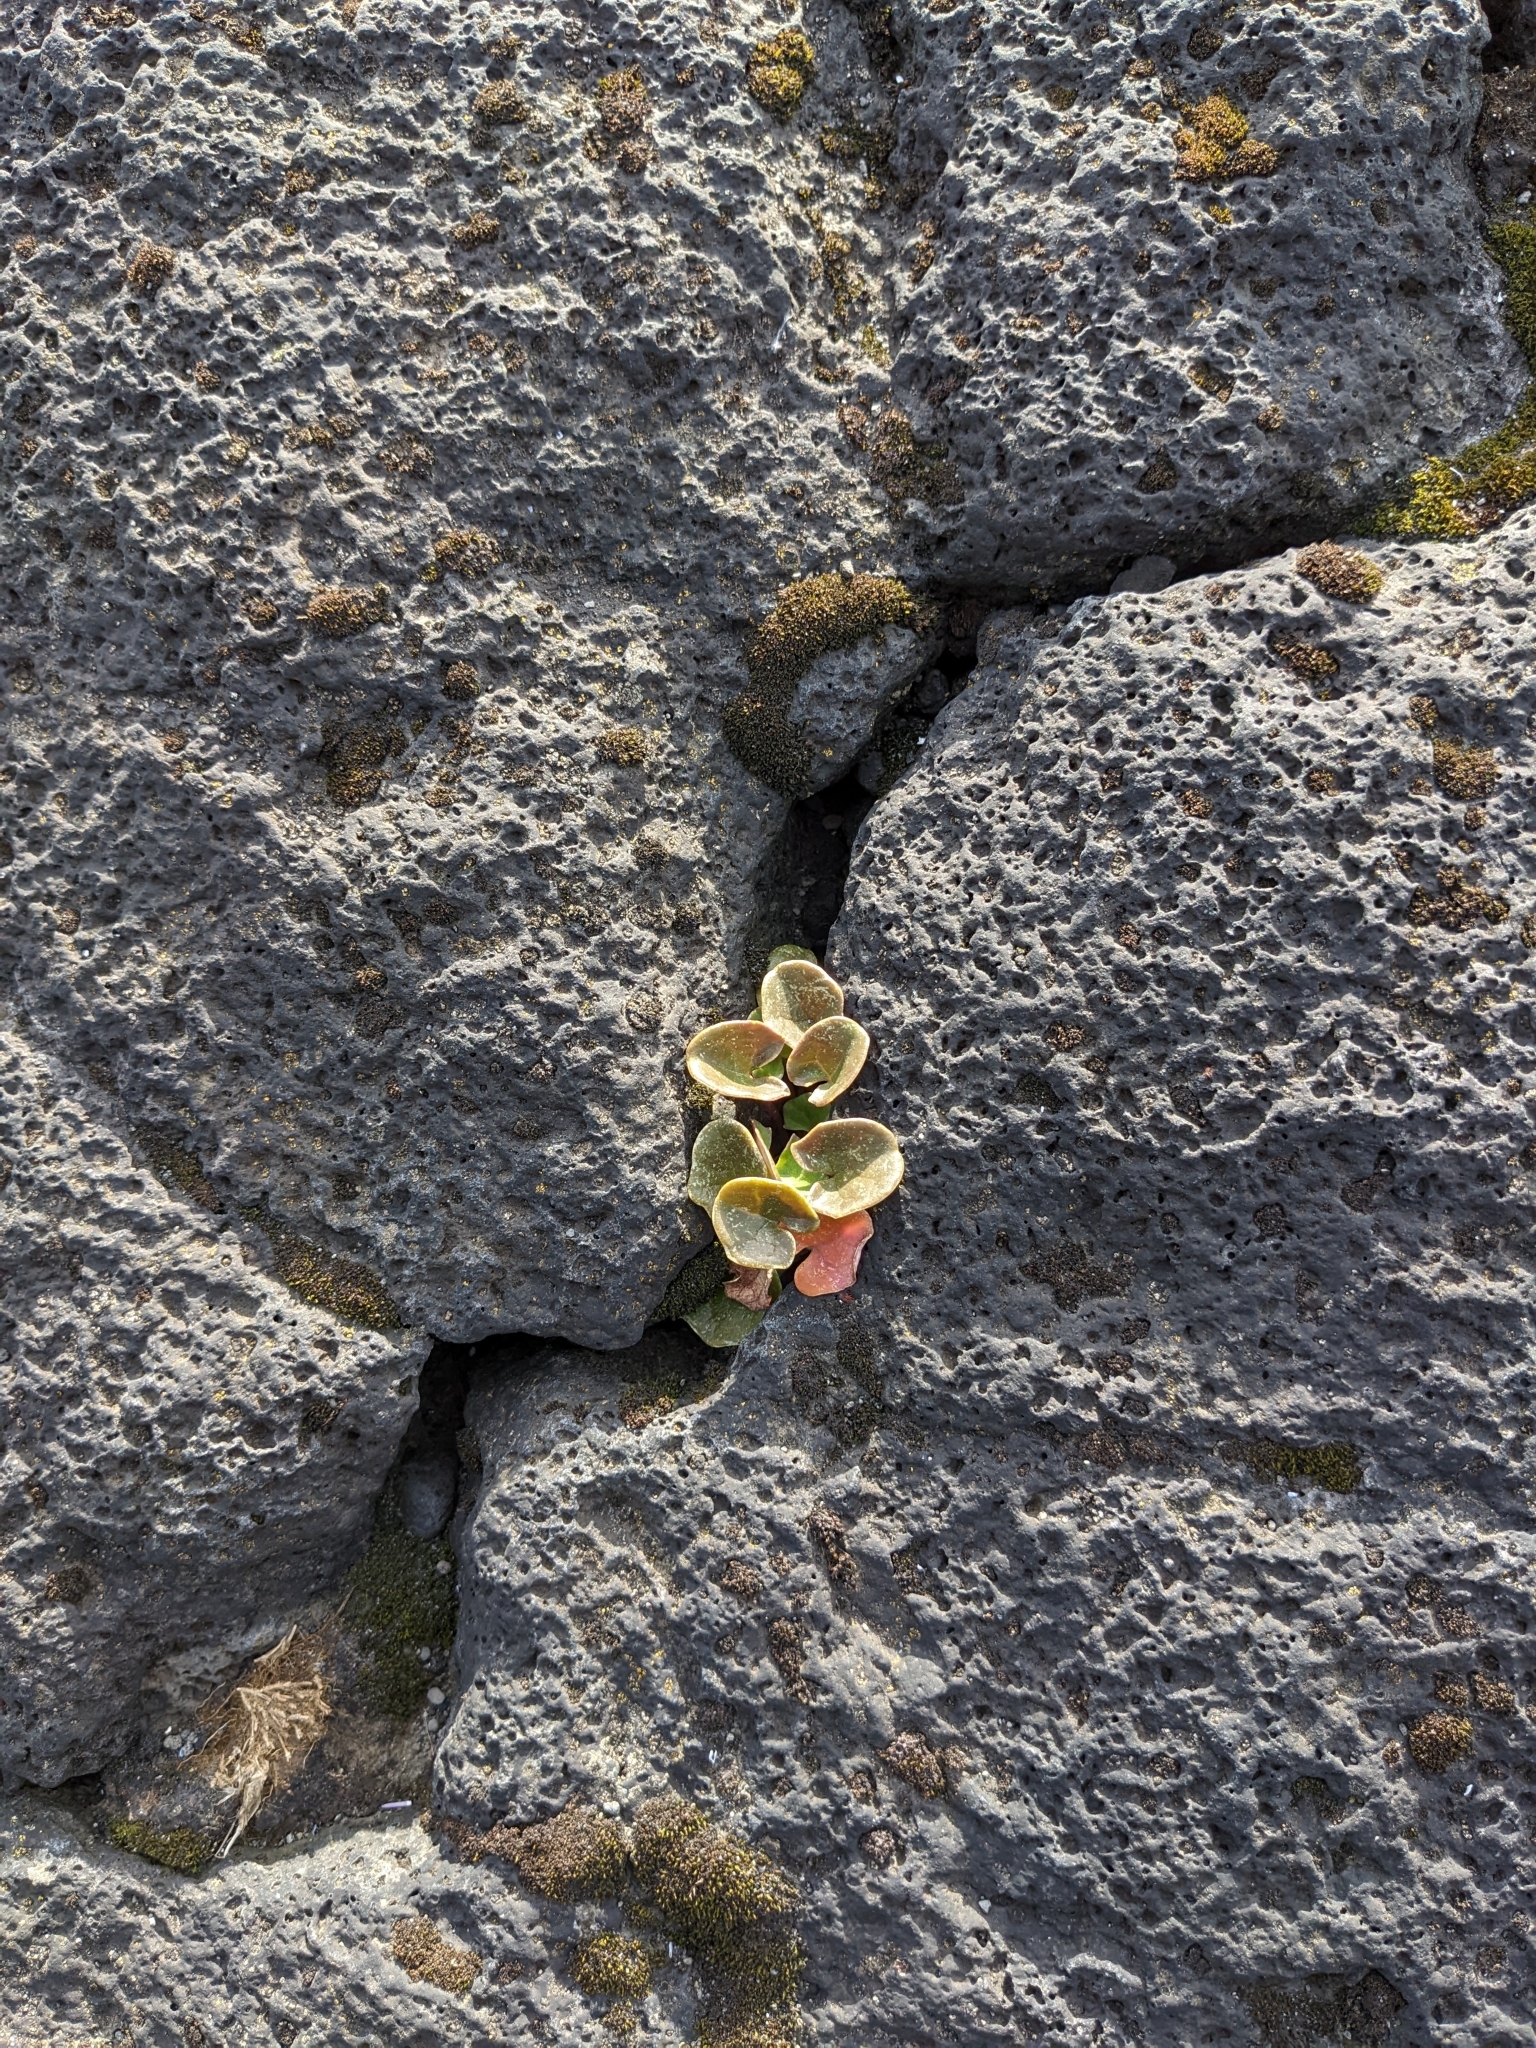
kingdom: Plantae
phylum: Tracheophyta
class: Magnoliopsida
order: Caryophyllales
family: Polygonaceae
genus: Oxyria
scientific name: Oxyria digyna
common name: Alpine mountain-sorrel
